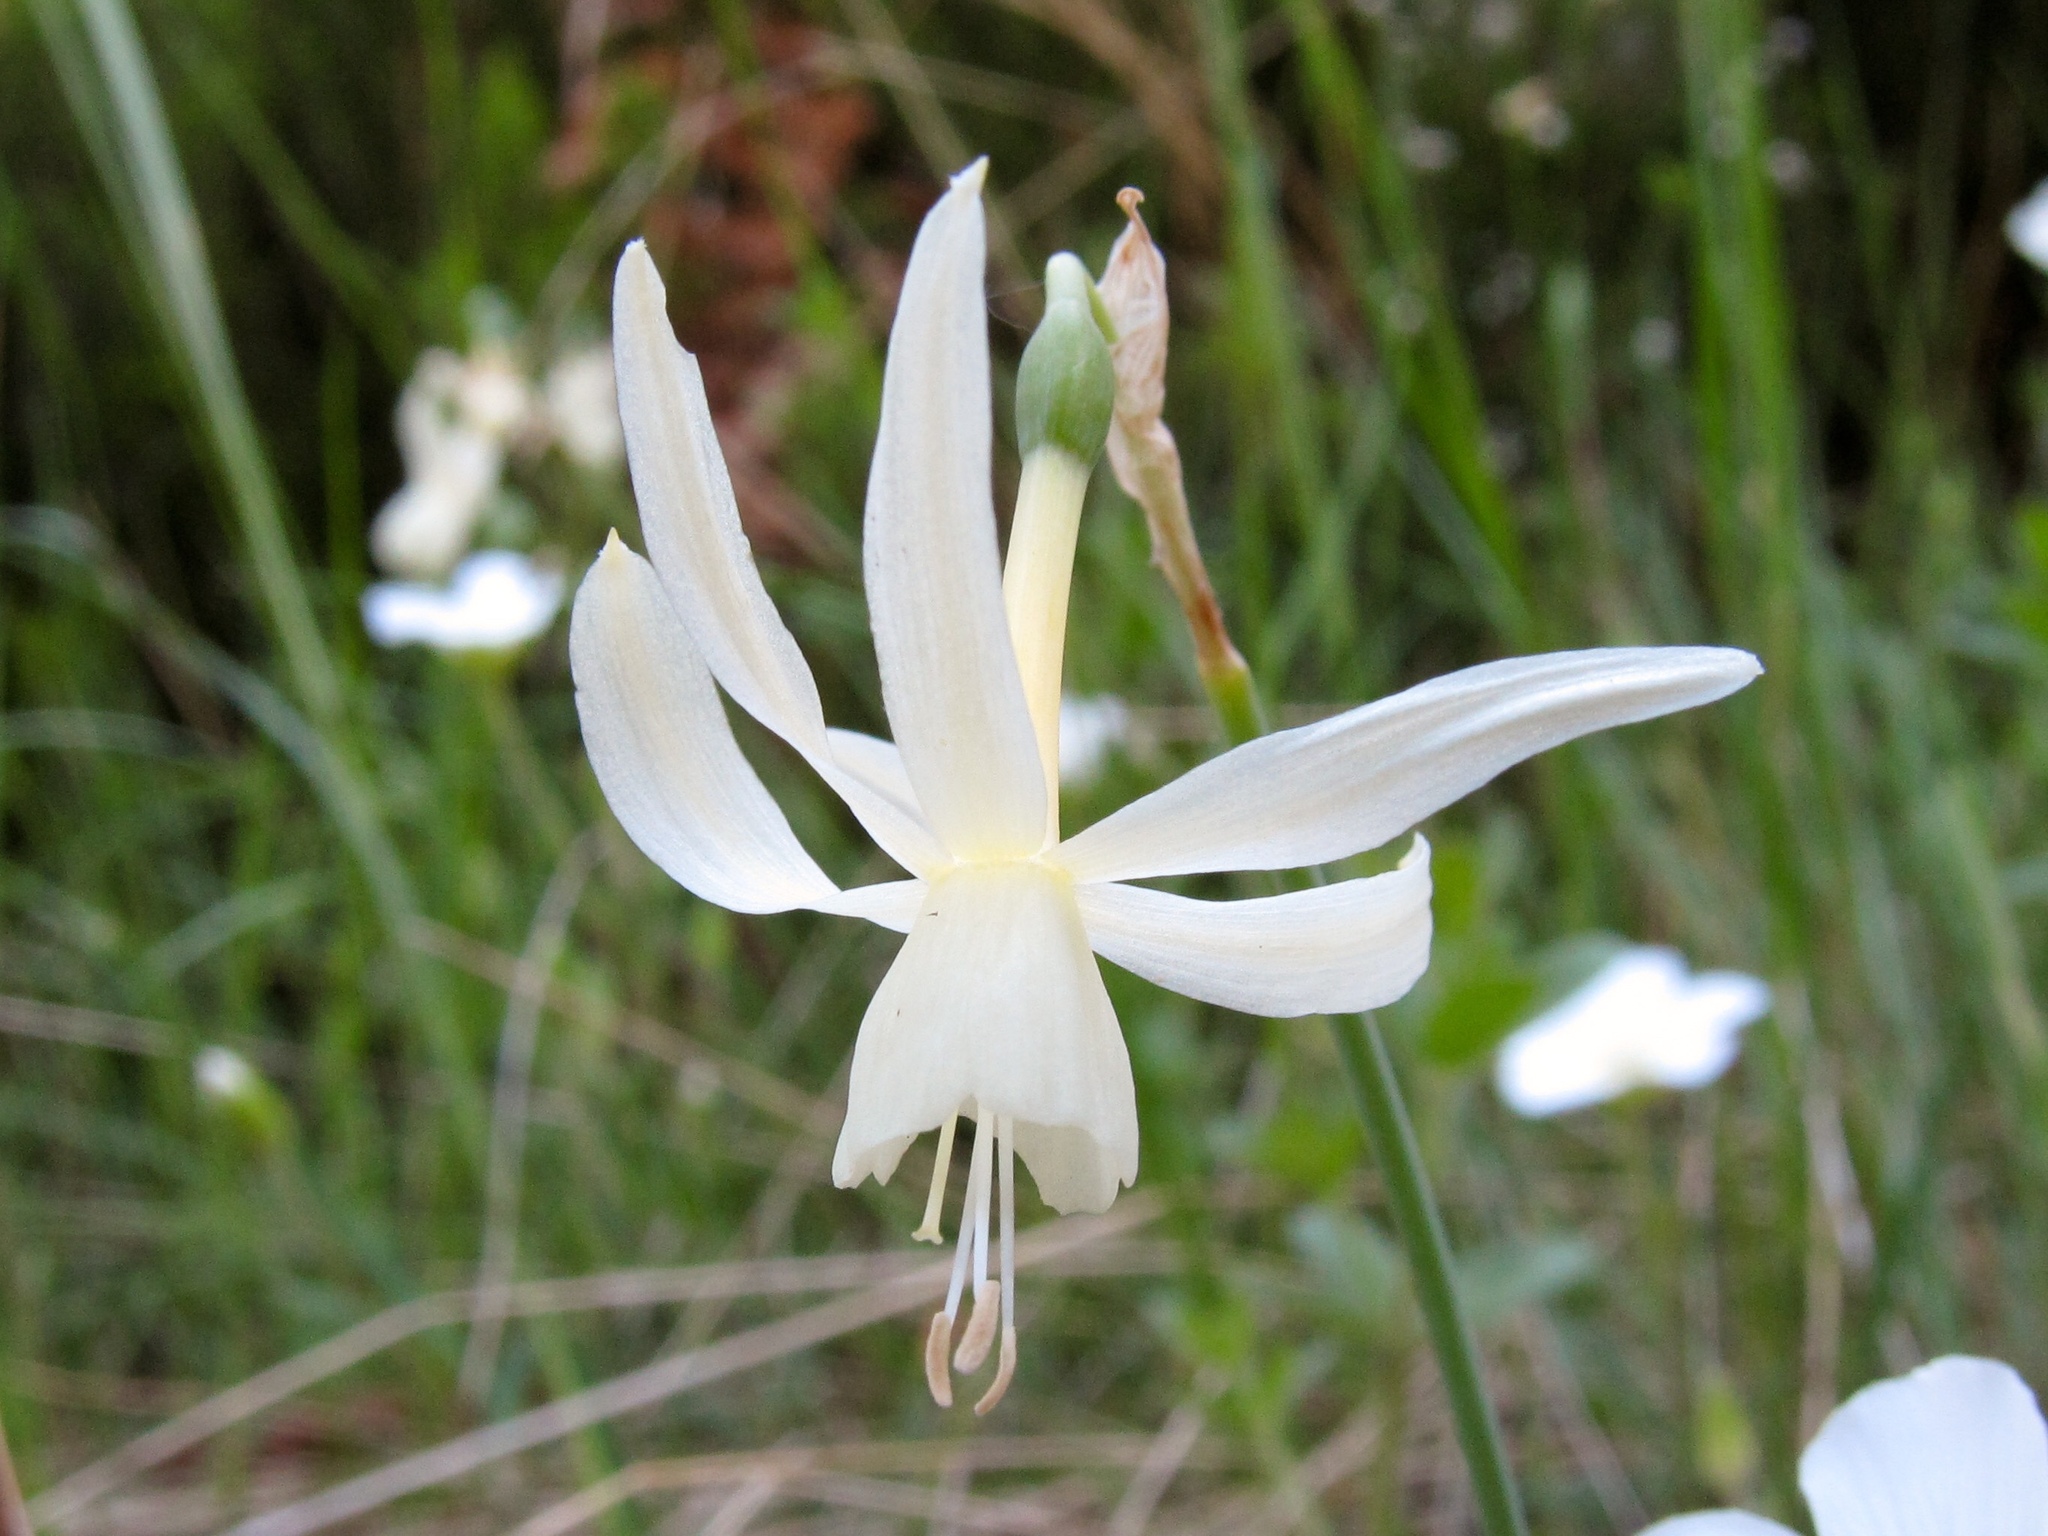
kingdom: Plantae
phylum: Tracheophyta
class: Liliopsida
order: Asparagales
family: Amaryllidaceae
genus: Narcissus
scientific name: Narcissus triandrus
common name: Angel's-tears
